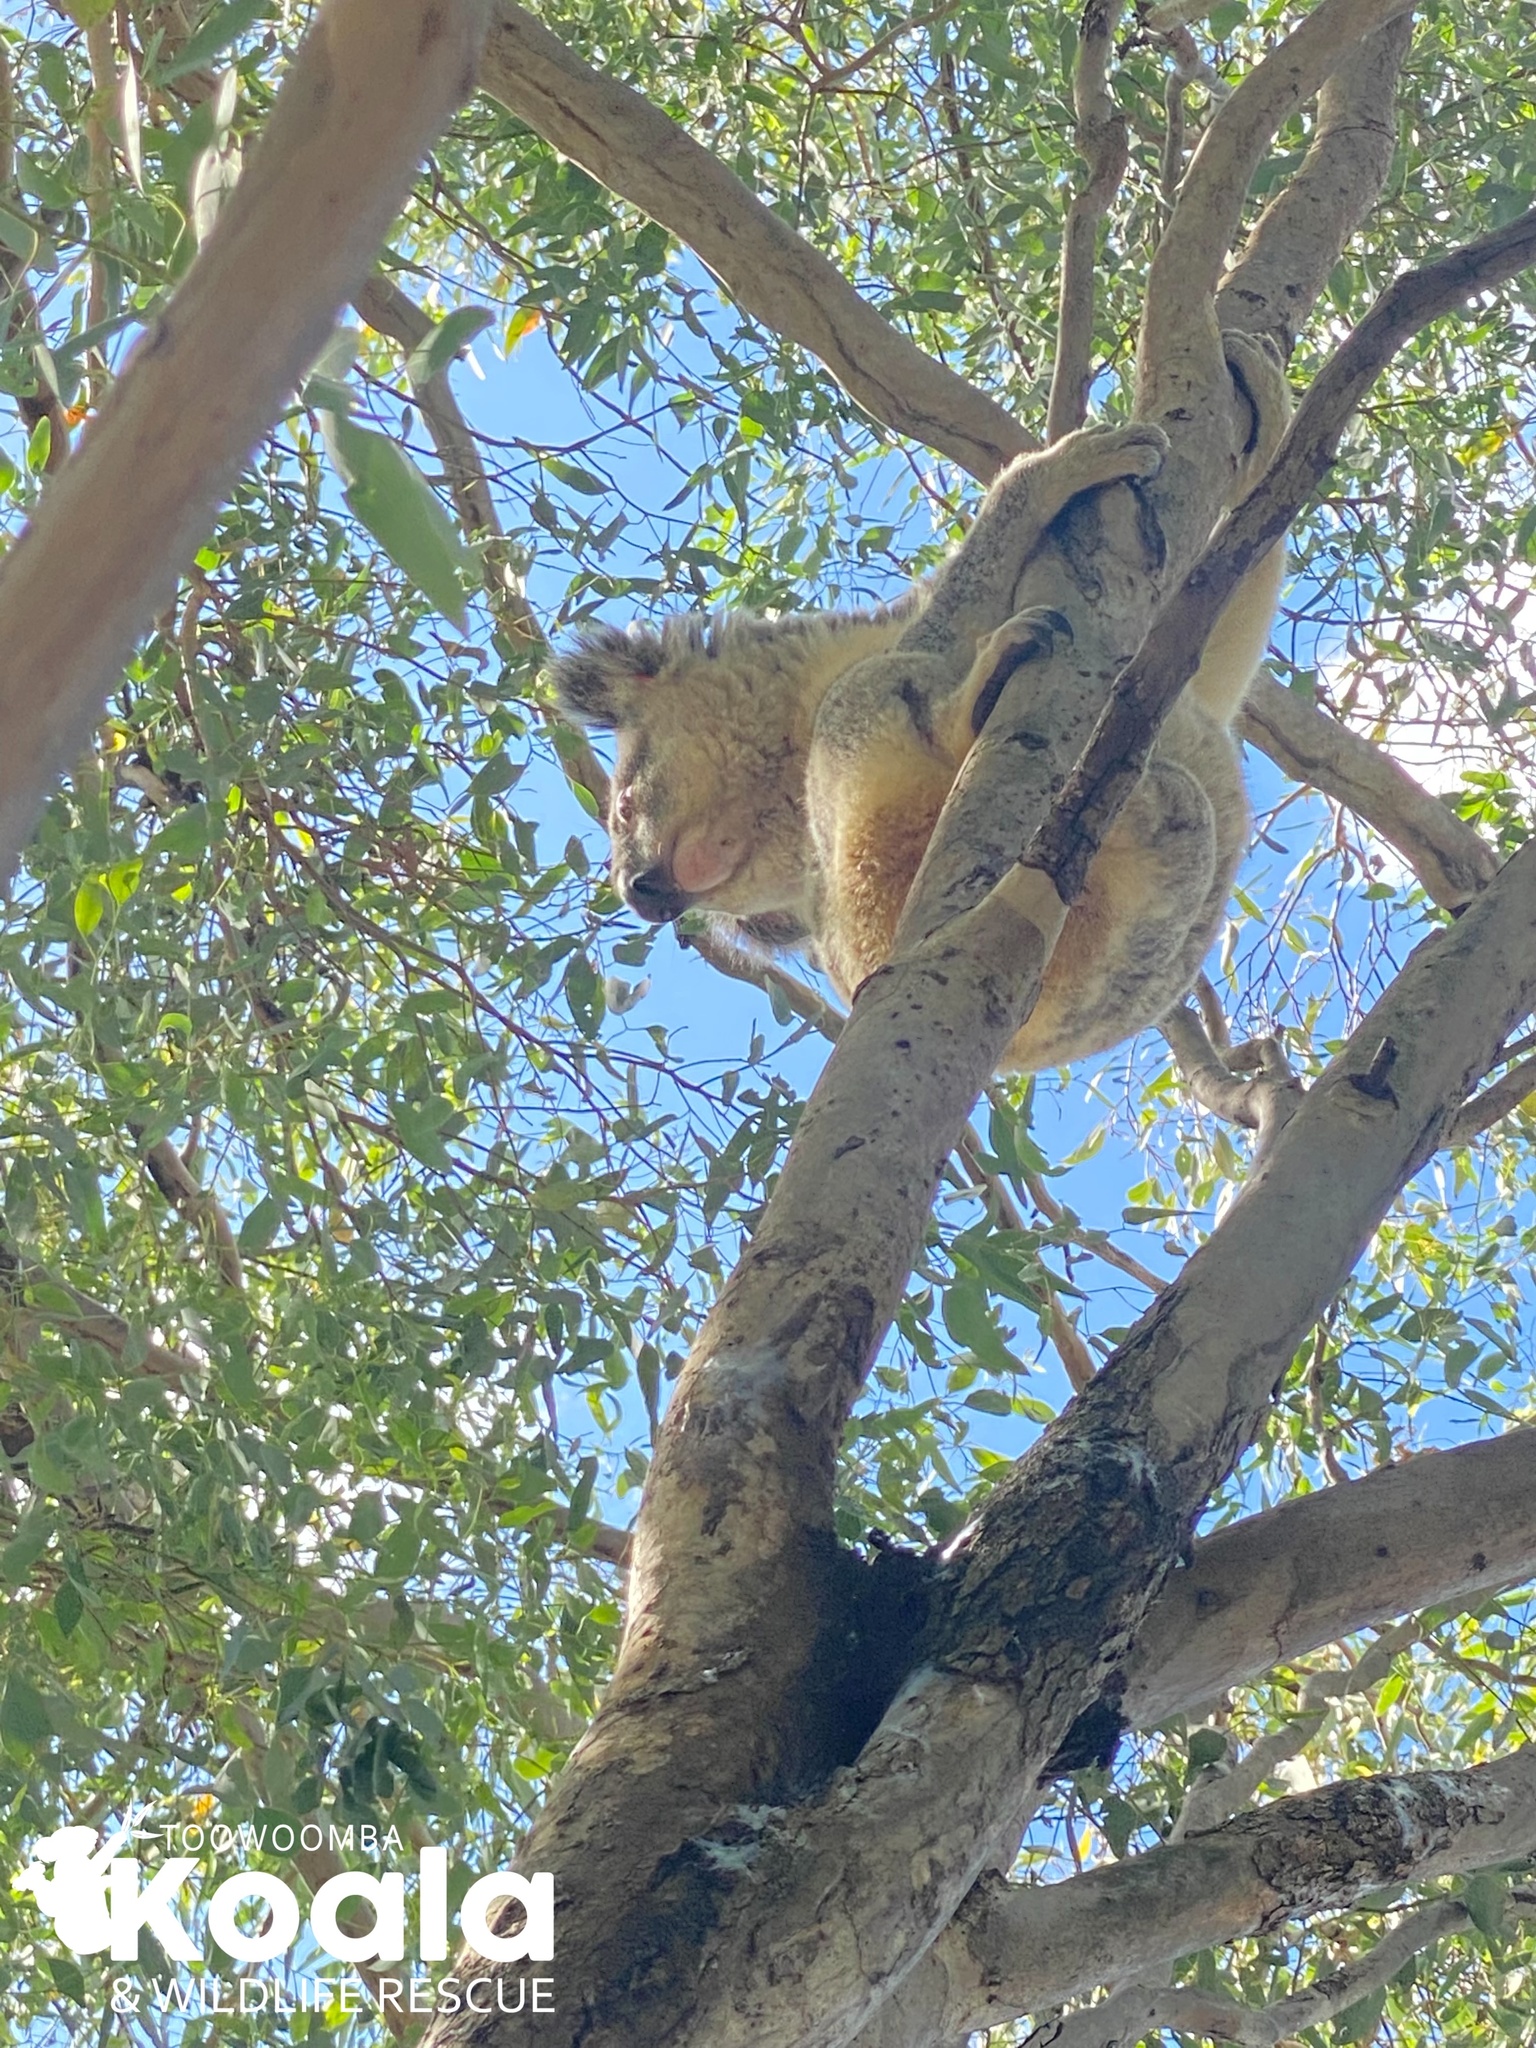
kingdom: Animalia
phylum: Chordata
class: Mammalia
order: Diprotodontia
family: Phascolarctidae
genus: Phascolarctos
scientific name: Phascolarctos cinereus
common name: Koala
